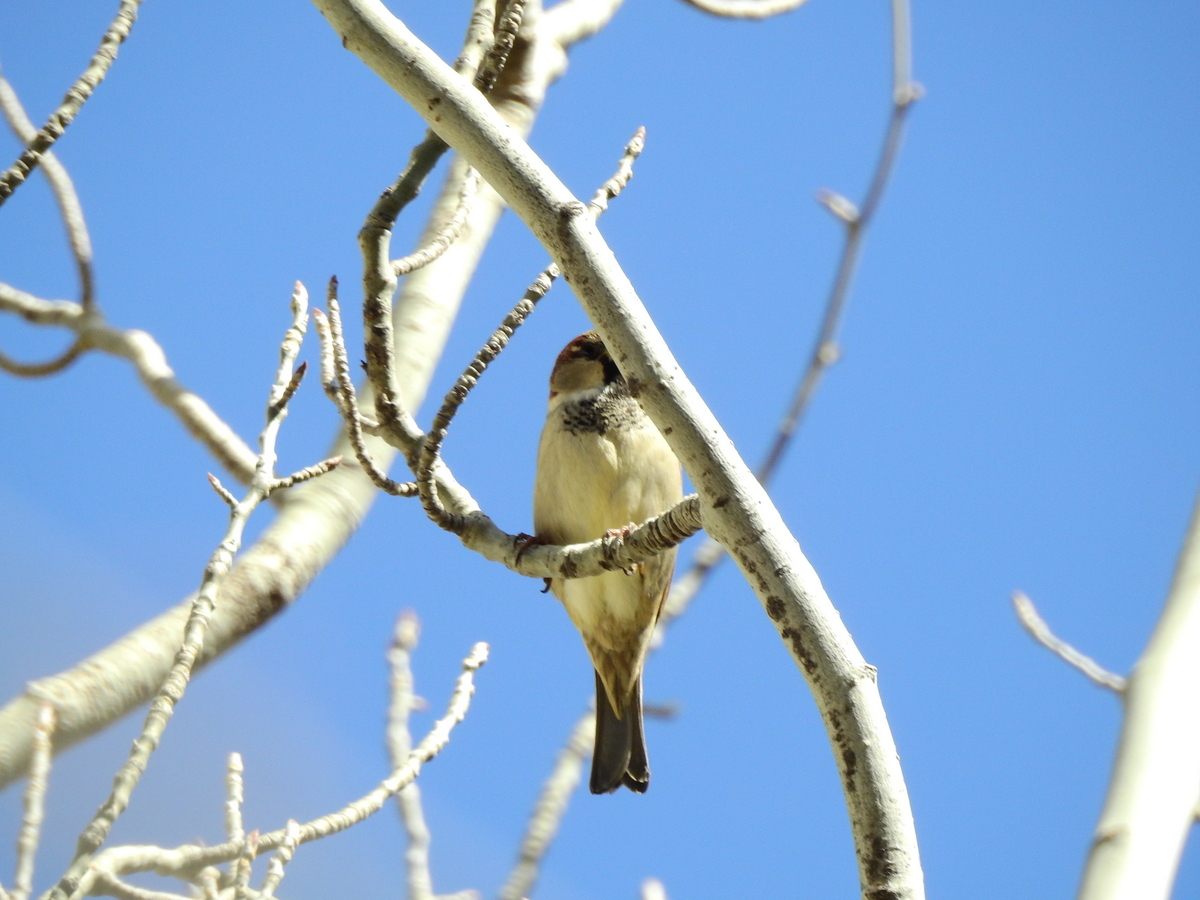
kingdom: Animalia
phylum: Chordata
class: Aves
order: Passeriformes
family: Passeridae
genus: Passer
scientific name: Passer domesticus
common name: House sparrow
